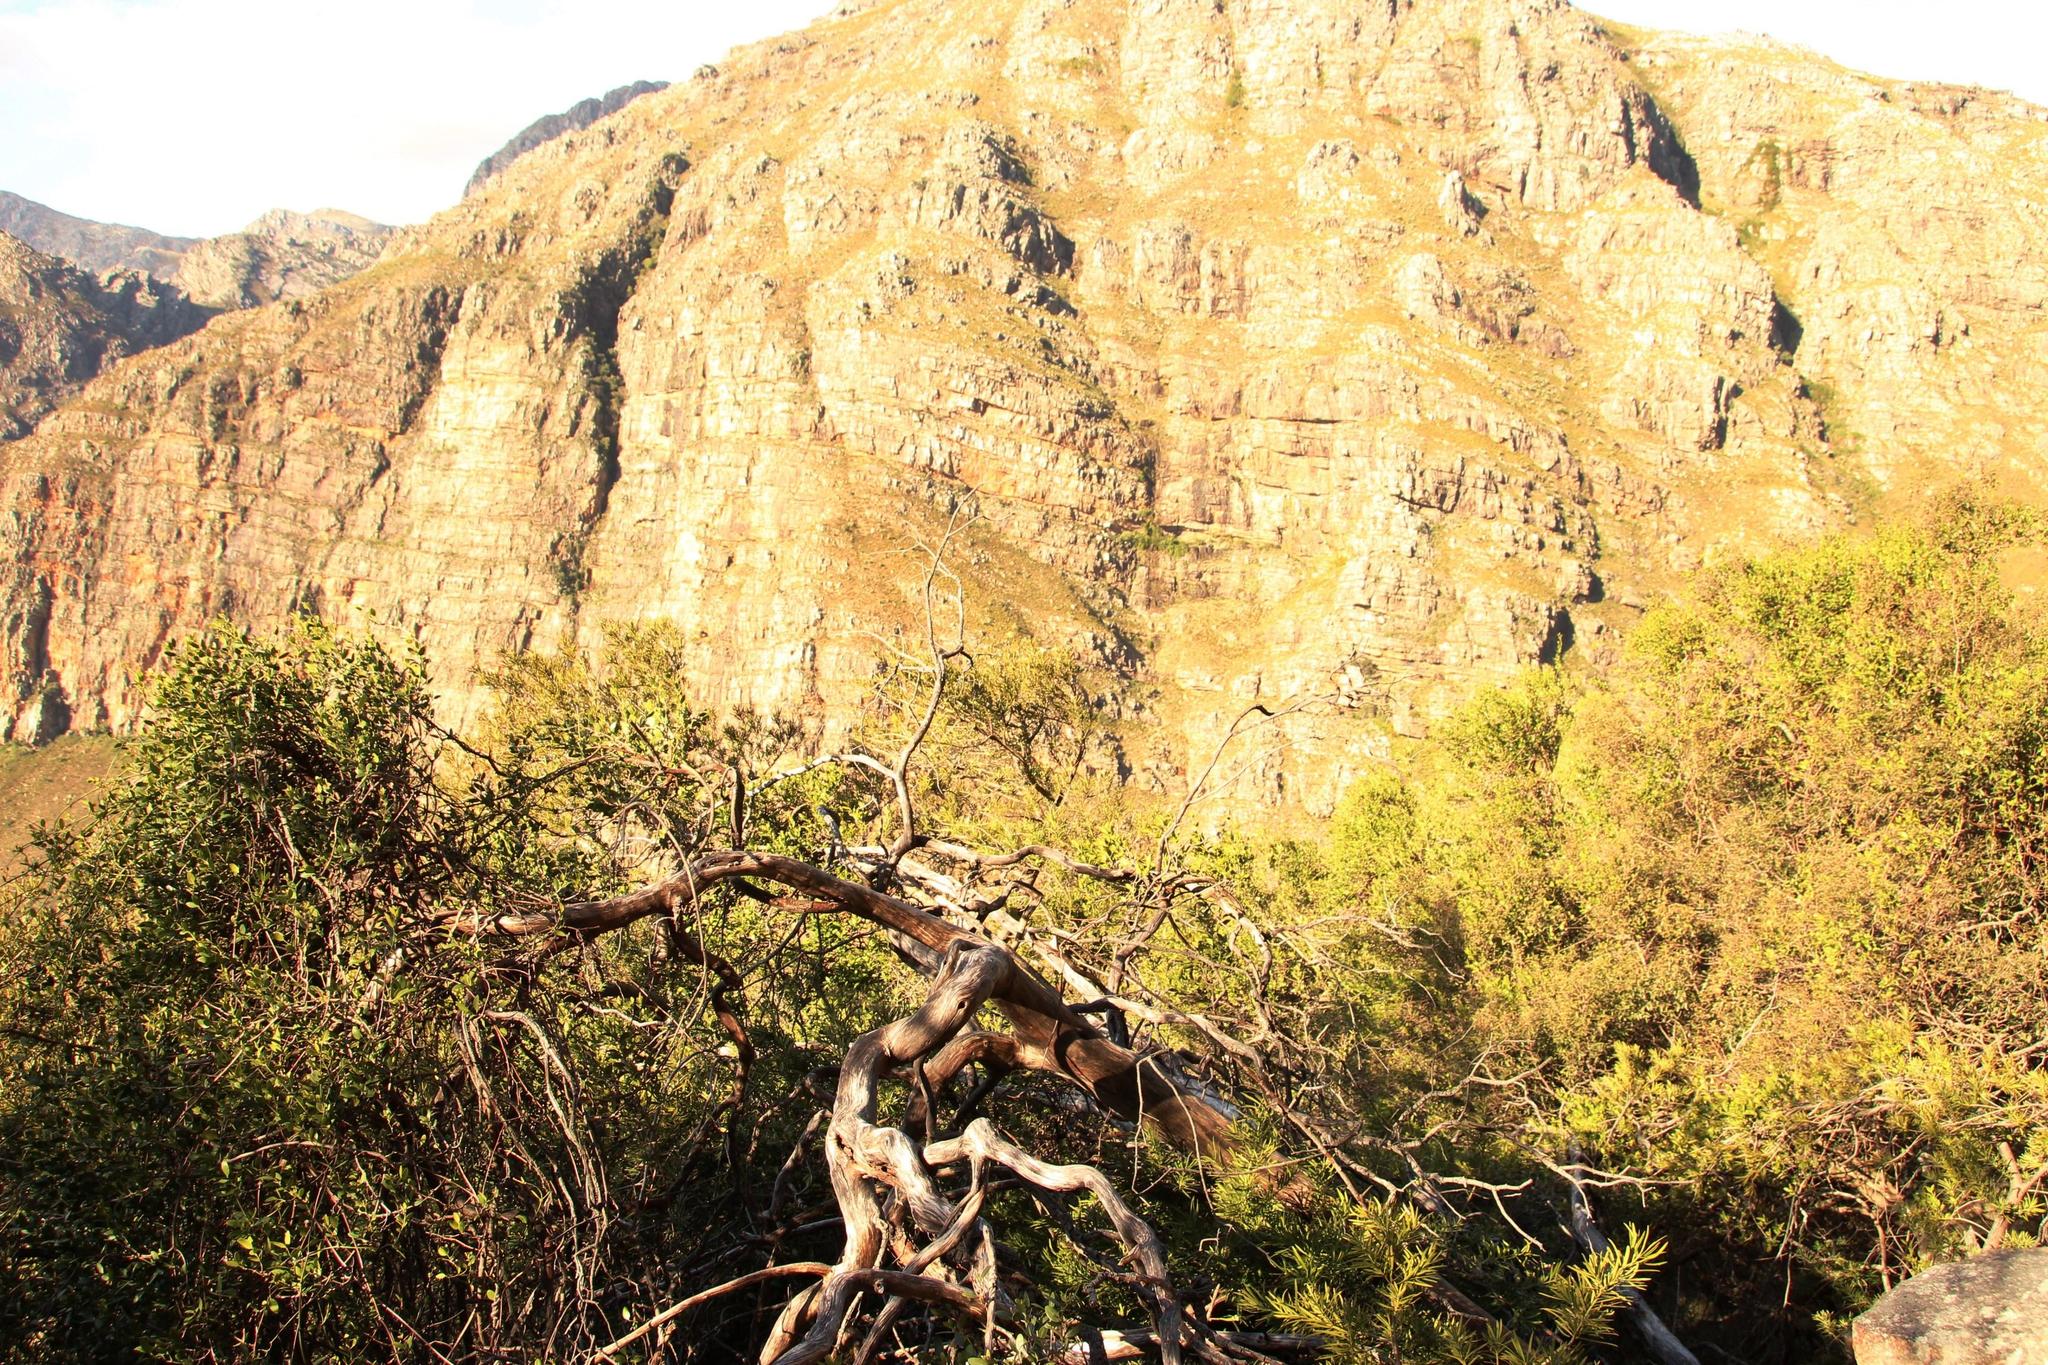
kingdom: Plantae
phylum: Tracheophyta
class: Pinopsida
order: Pinales
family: Podocarpaceae
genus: Podocarpus
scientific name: Podocarpus latifolius
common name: True yellowwood
